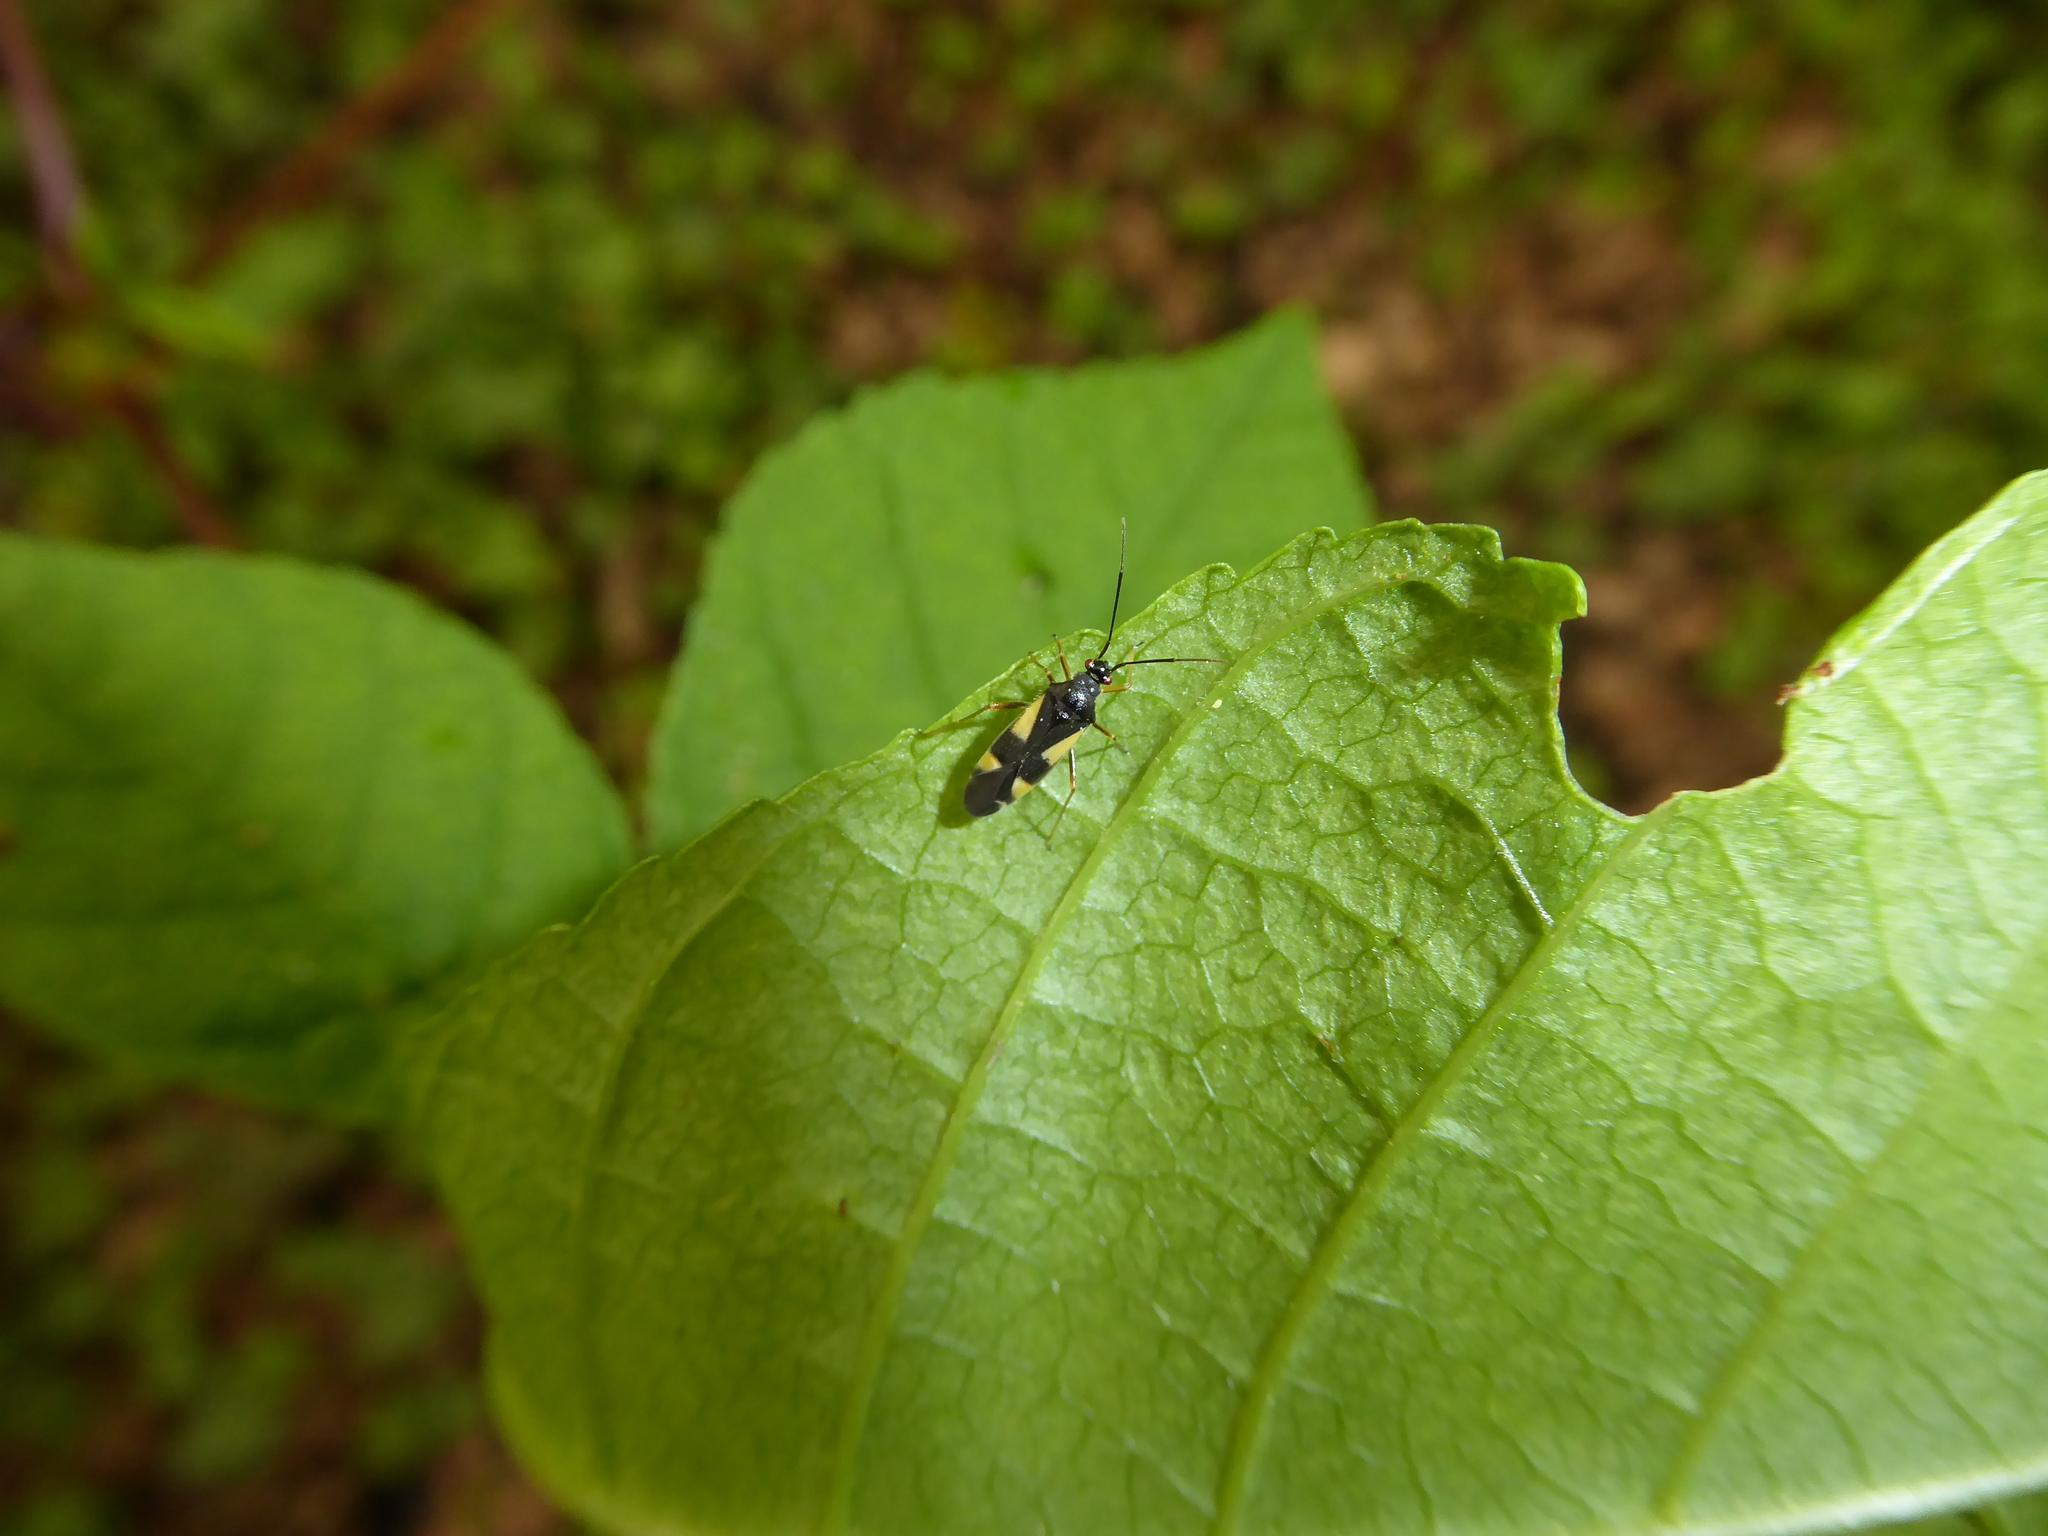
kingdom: Animalia
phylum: Arthropoda
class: Insecta
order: Hemiptera
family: Miridae
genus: Dryophilocoris
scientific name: Dryophilocoris flavoquadrimaculatus
